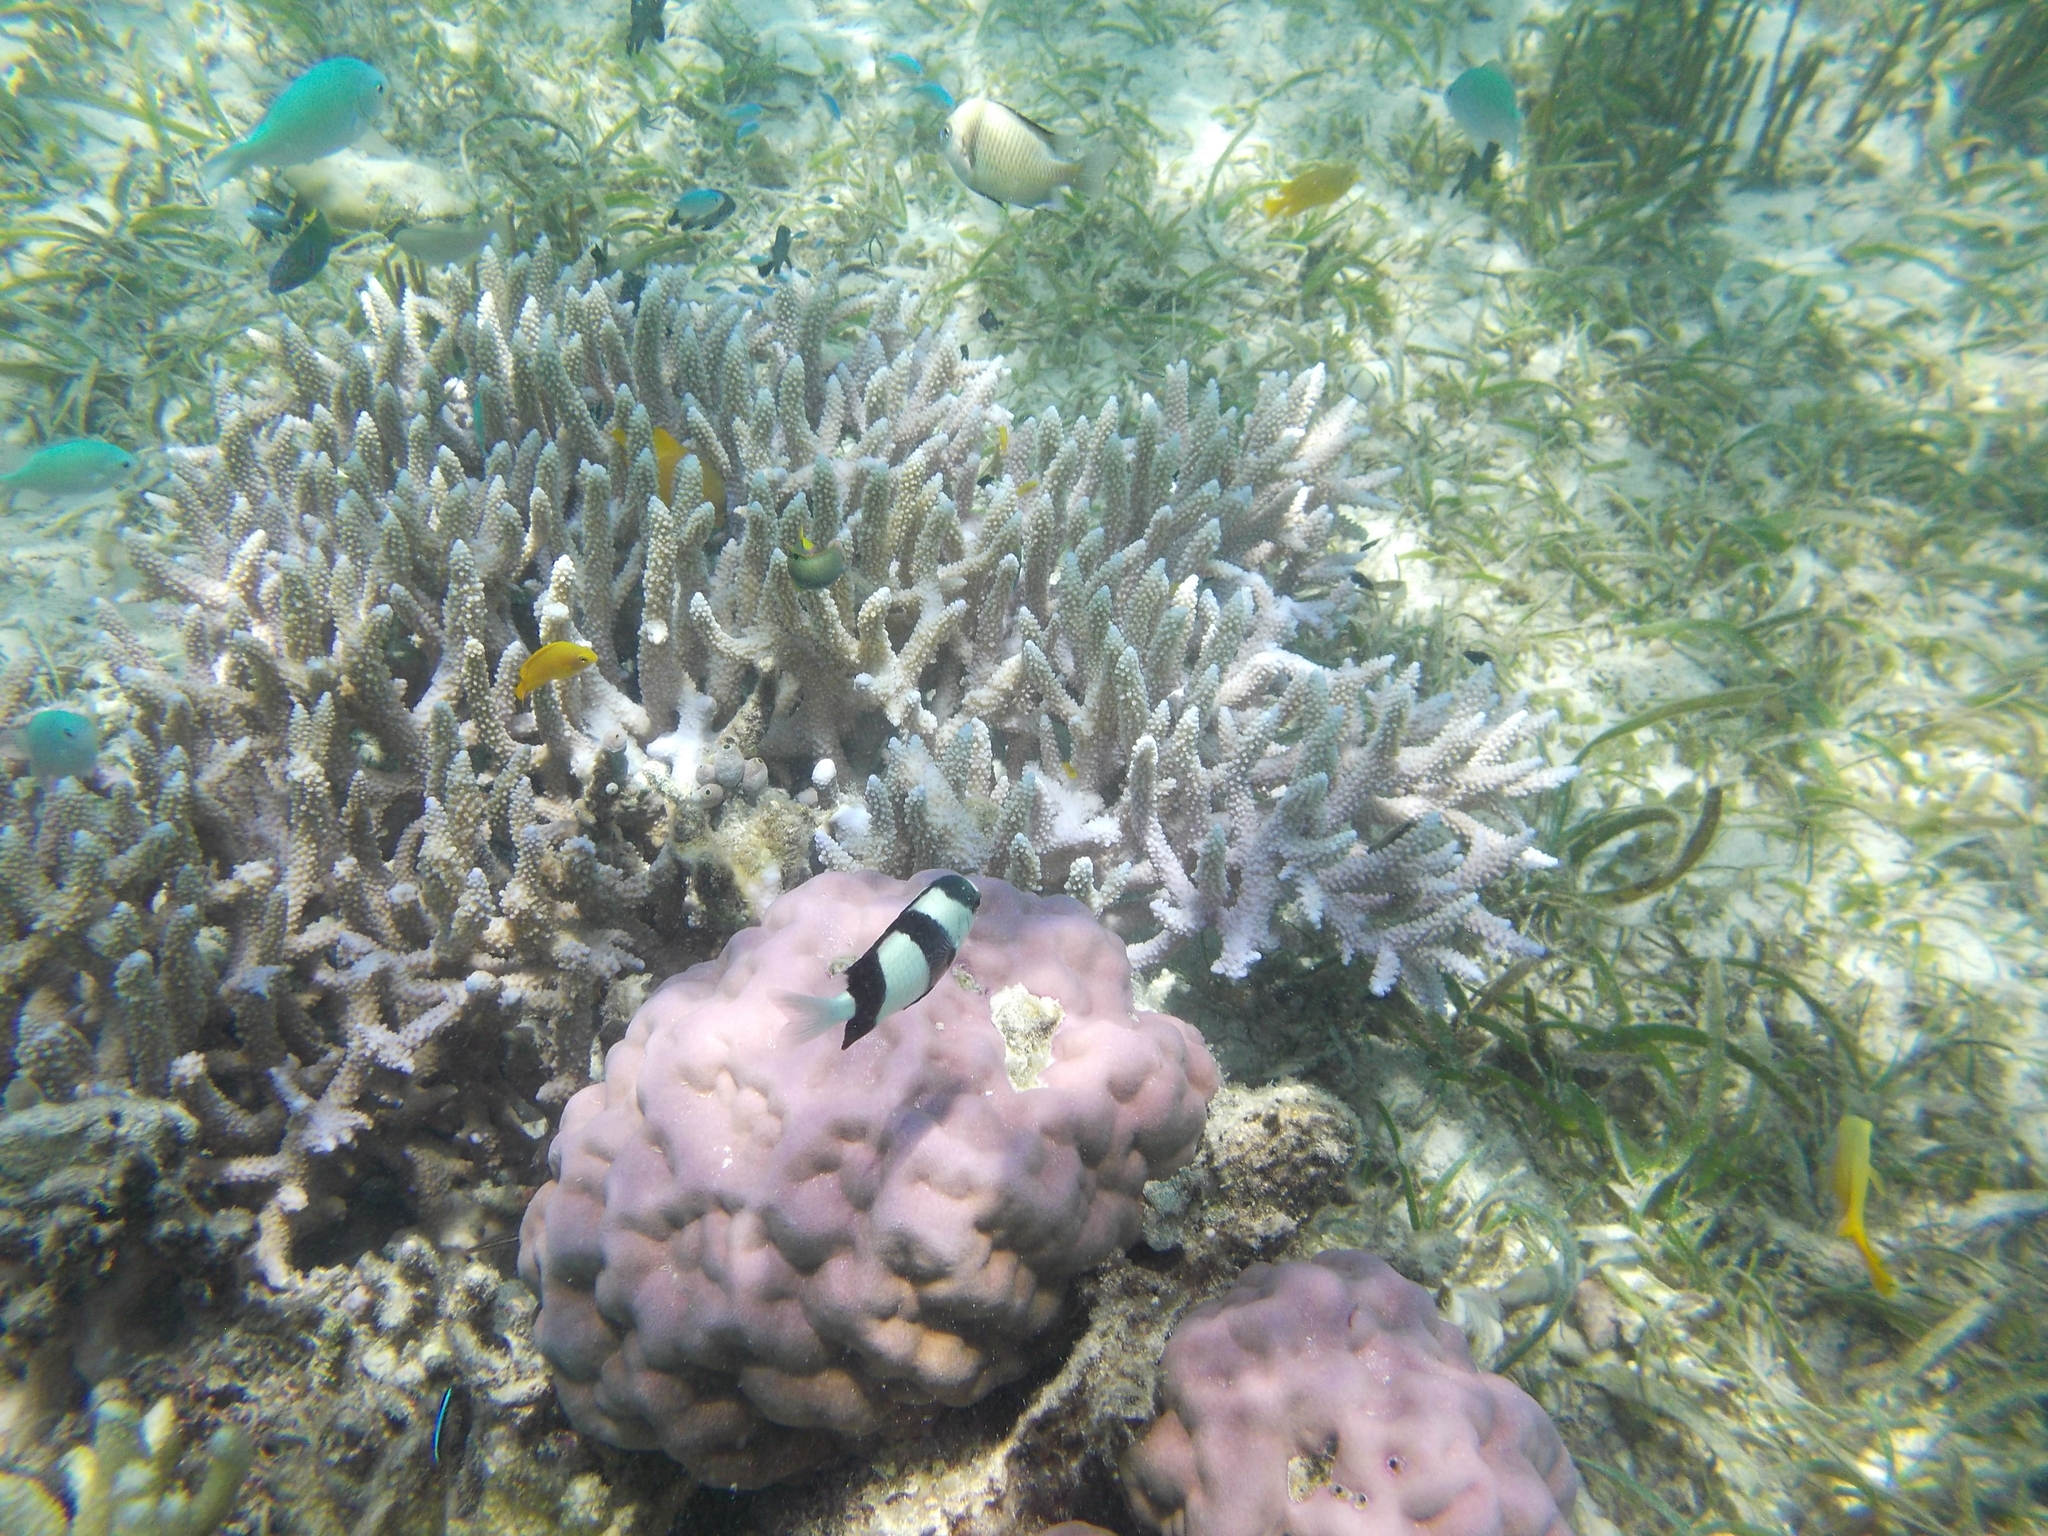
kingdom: Animalia
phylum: Chordata
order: Perciformes
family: Pomacentridae
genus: Dascyllus
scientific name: Dascyllus aruanus
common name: Humbug dascyllus
